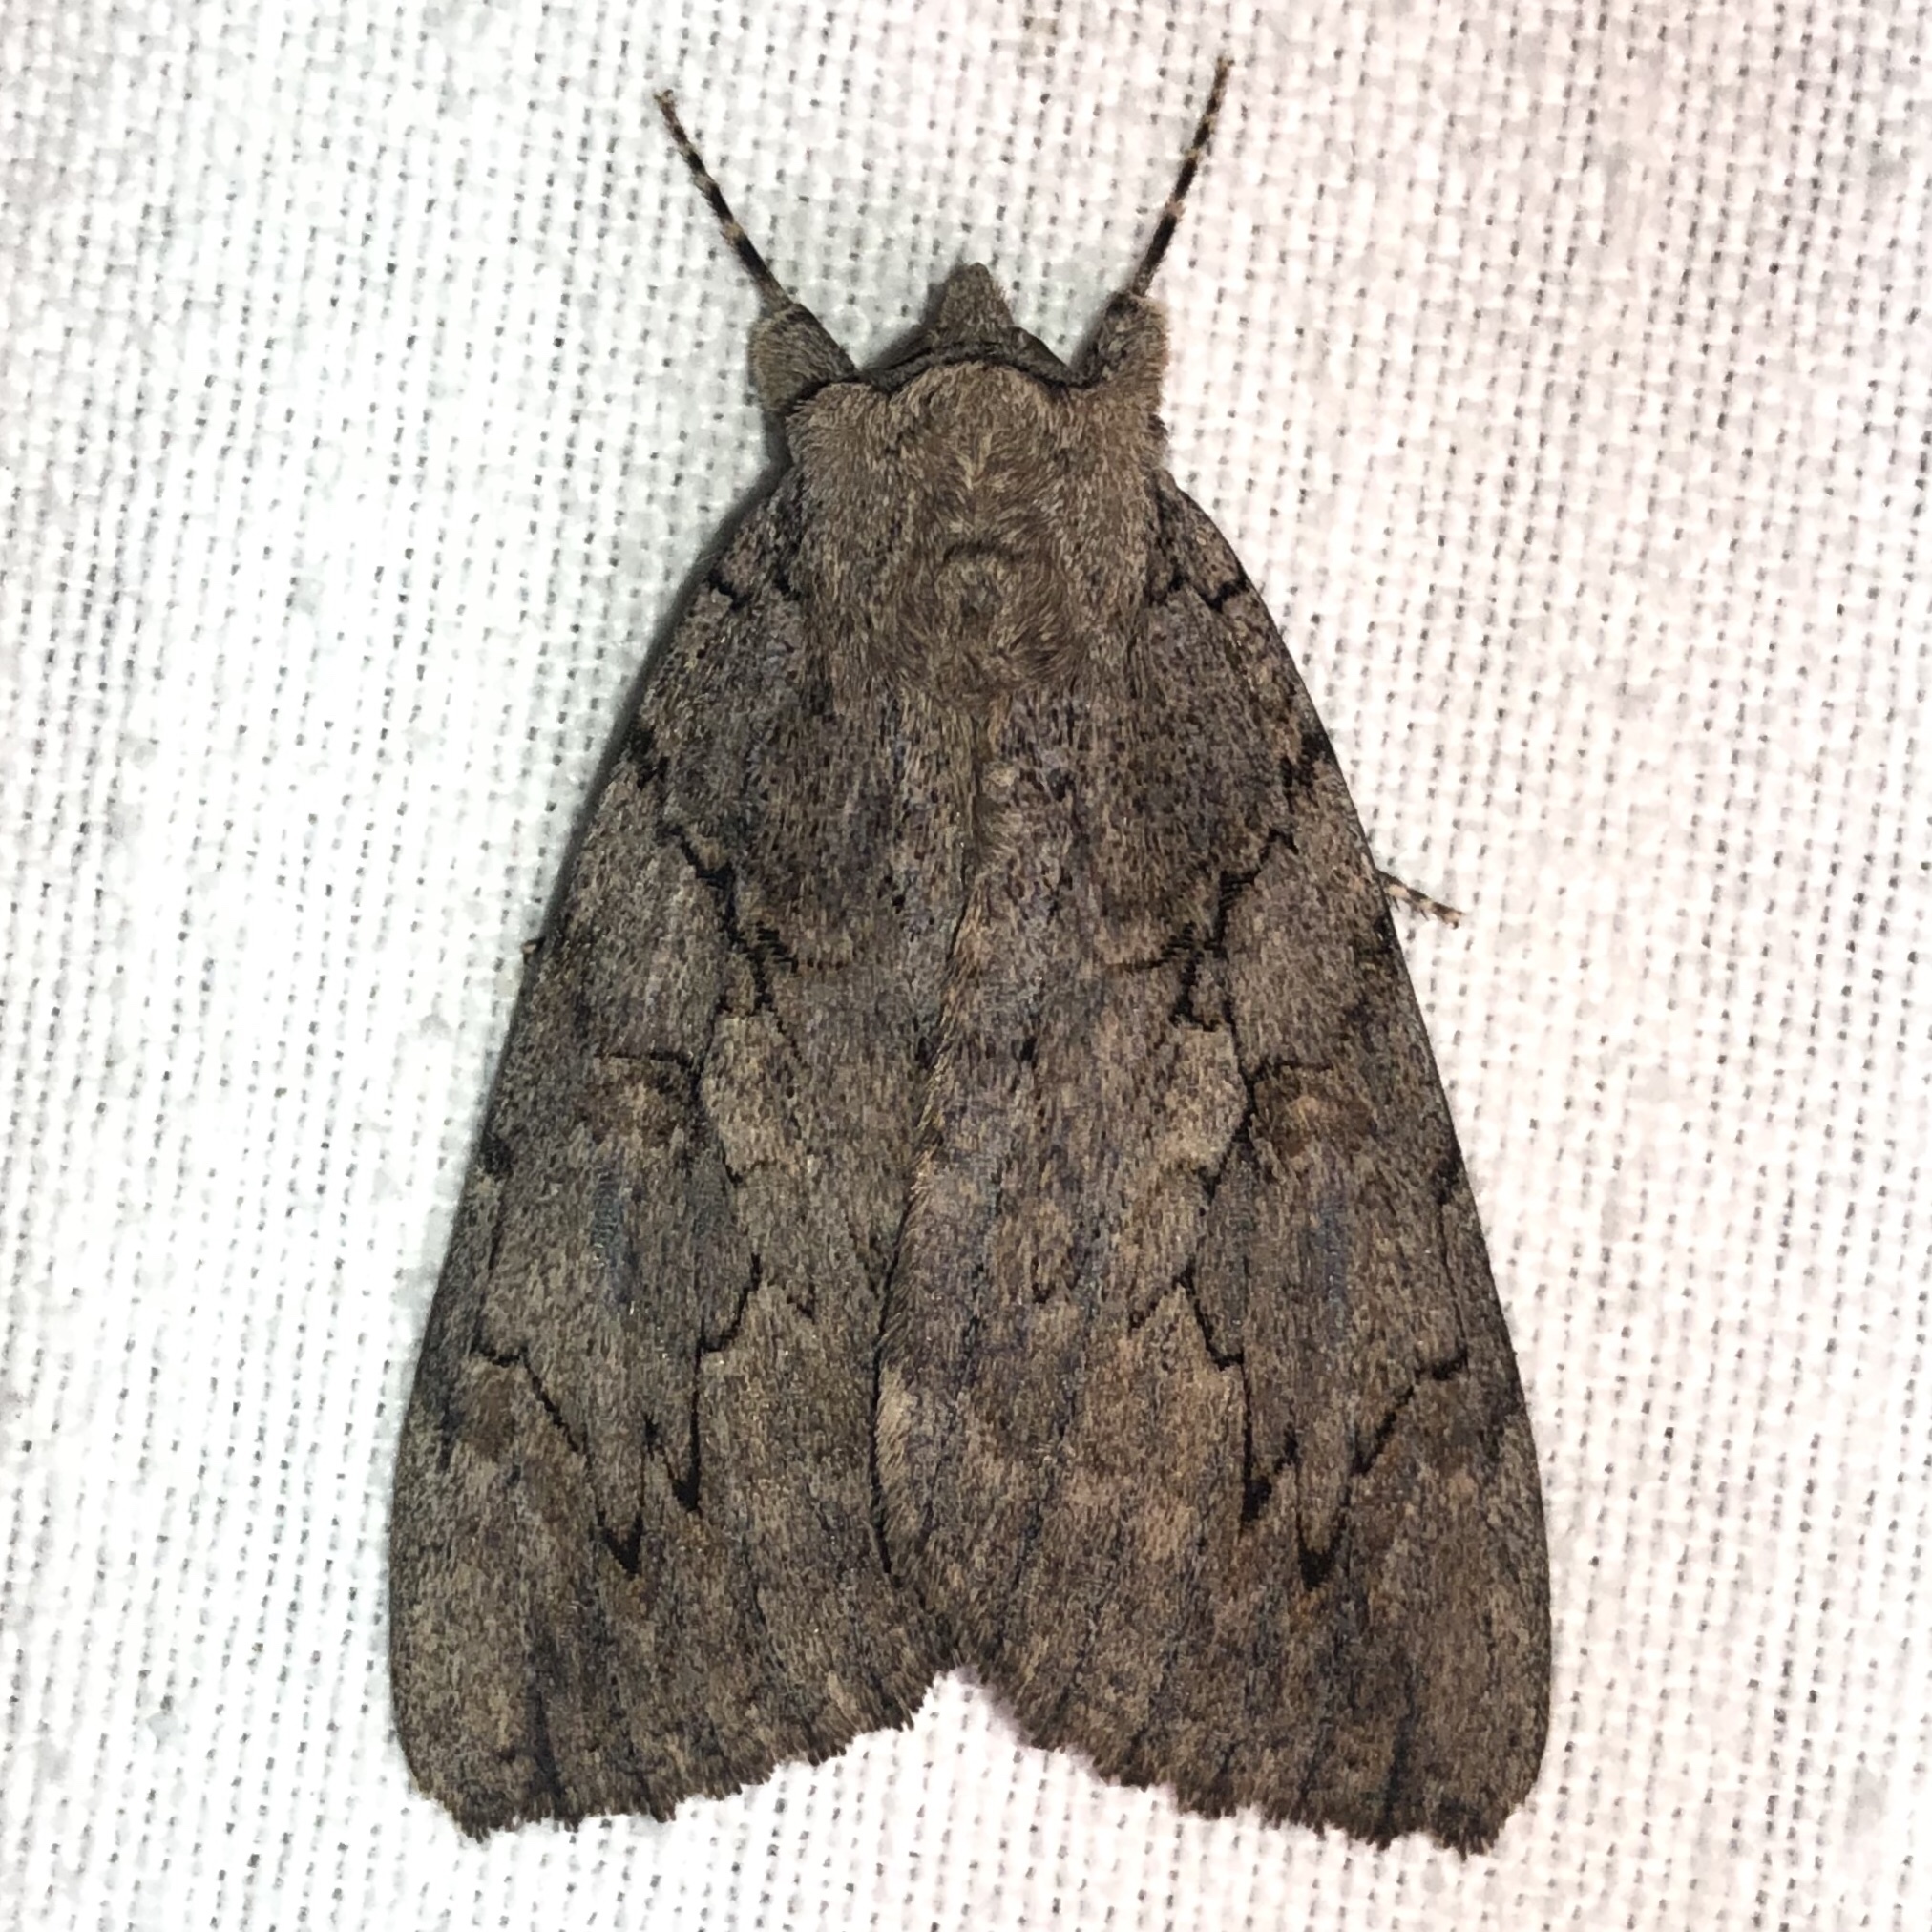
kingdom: Animalia
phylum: Arthropoda
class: Insecta
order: Lepidoptera
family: Erebidae
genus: Catocala
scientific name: Catocala amatrix
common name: Sweetheart underwing
